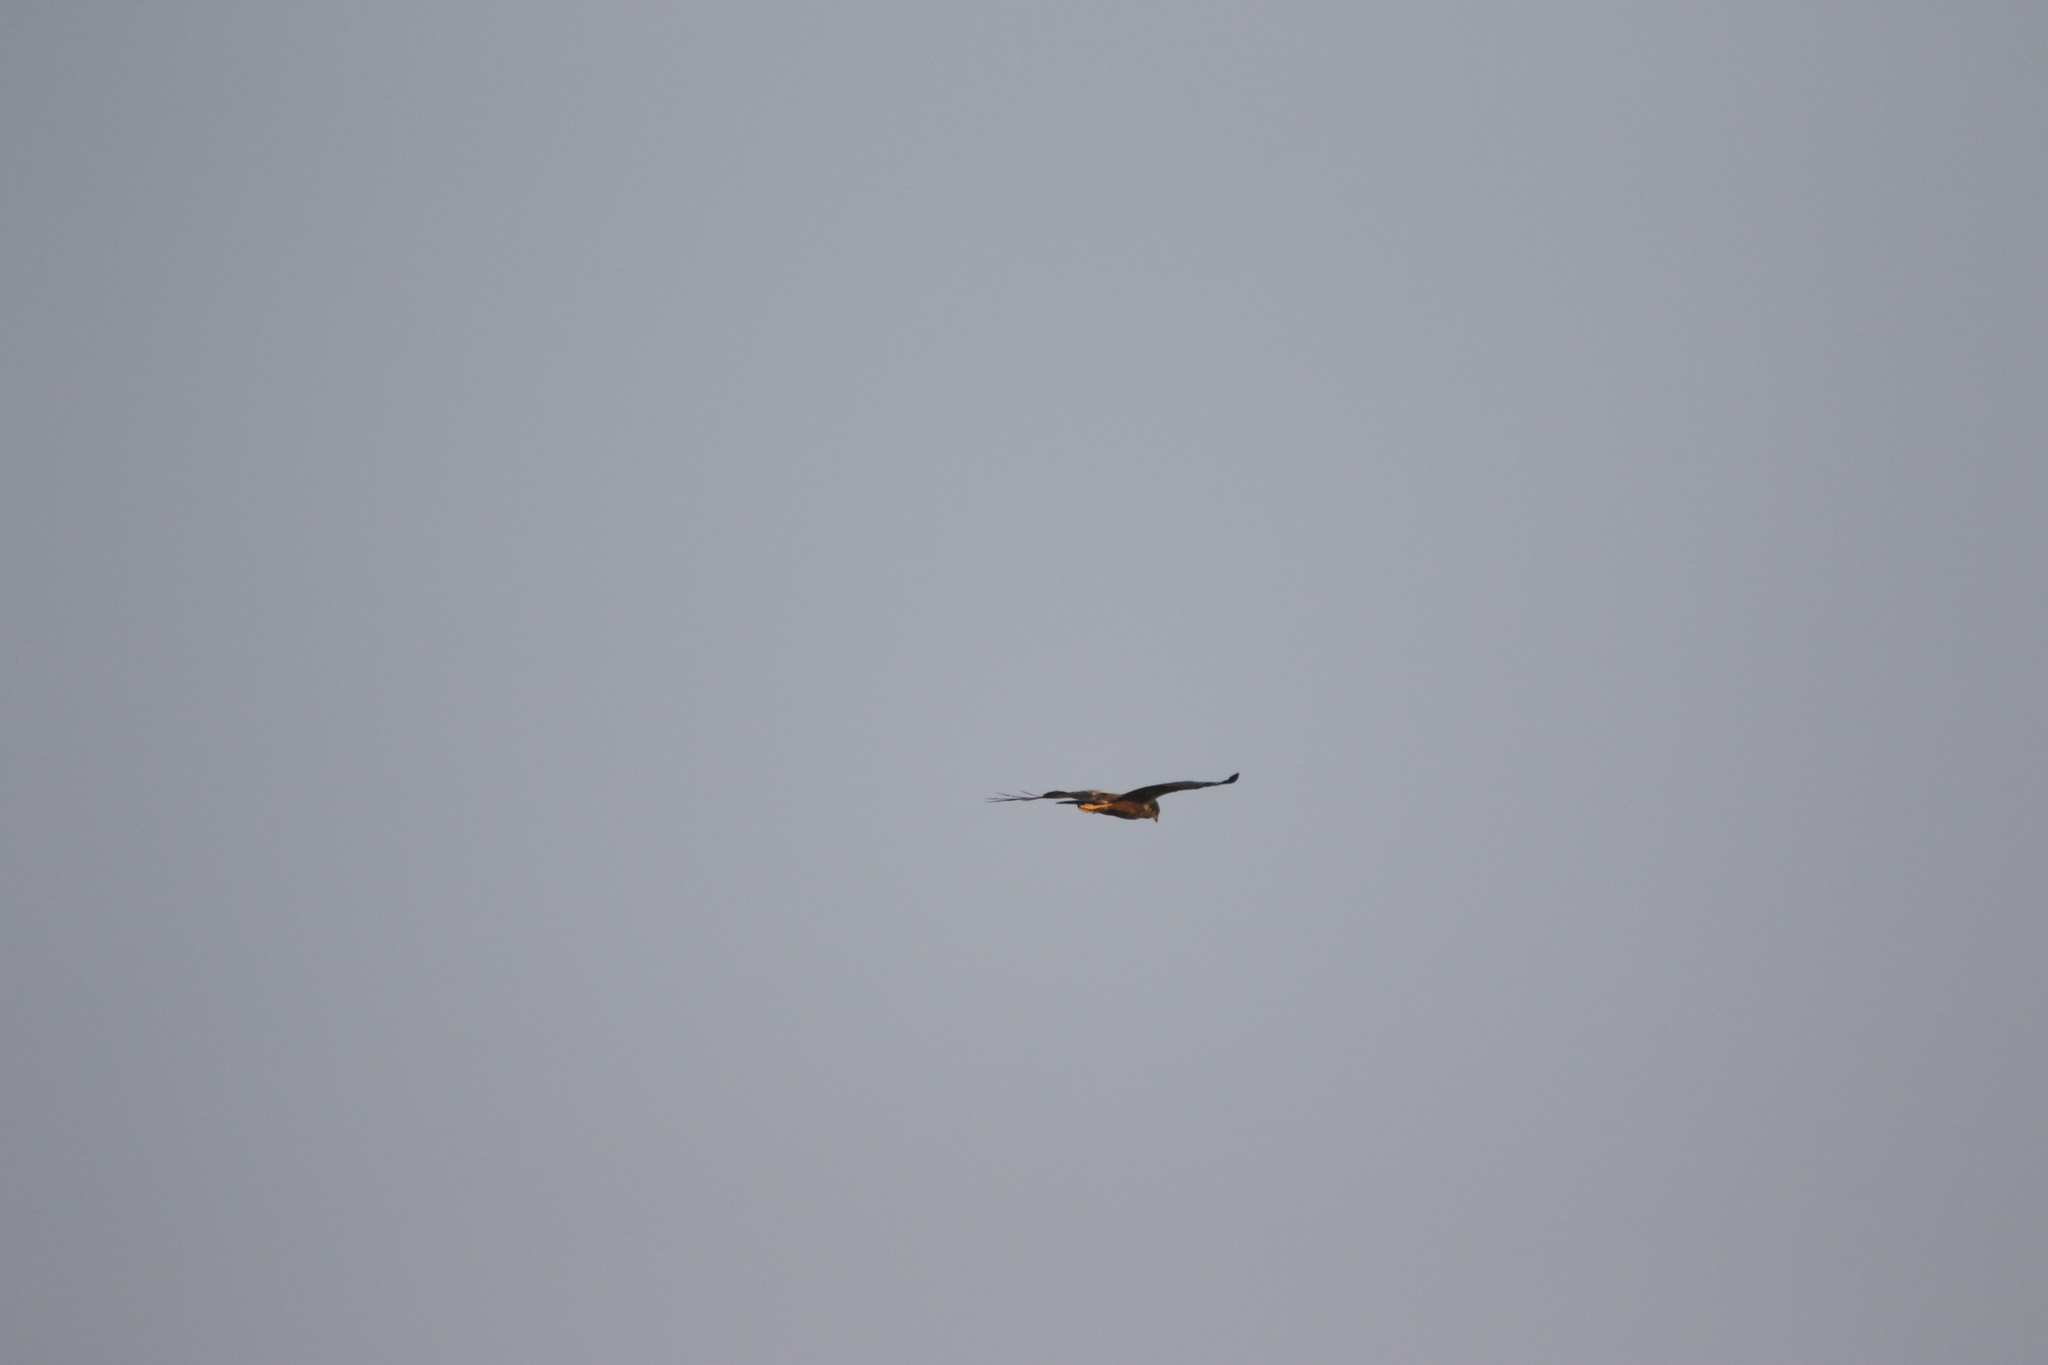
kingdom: Animalia
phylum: Chordata
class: Aves
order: Accipitriformes
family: Accipitridae
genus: Circus
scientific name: Circus aeruginosus
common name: Western marsh harrier
